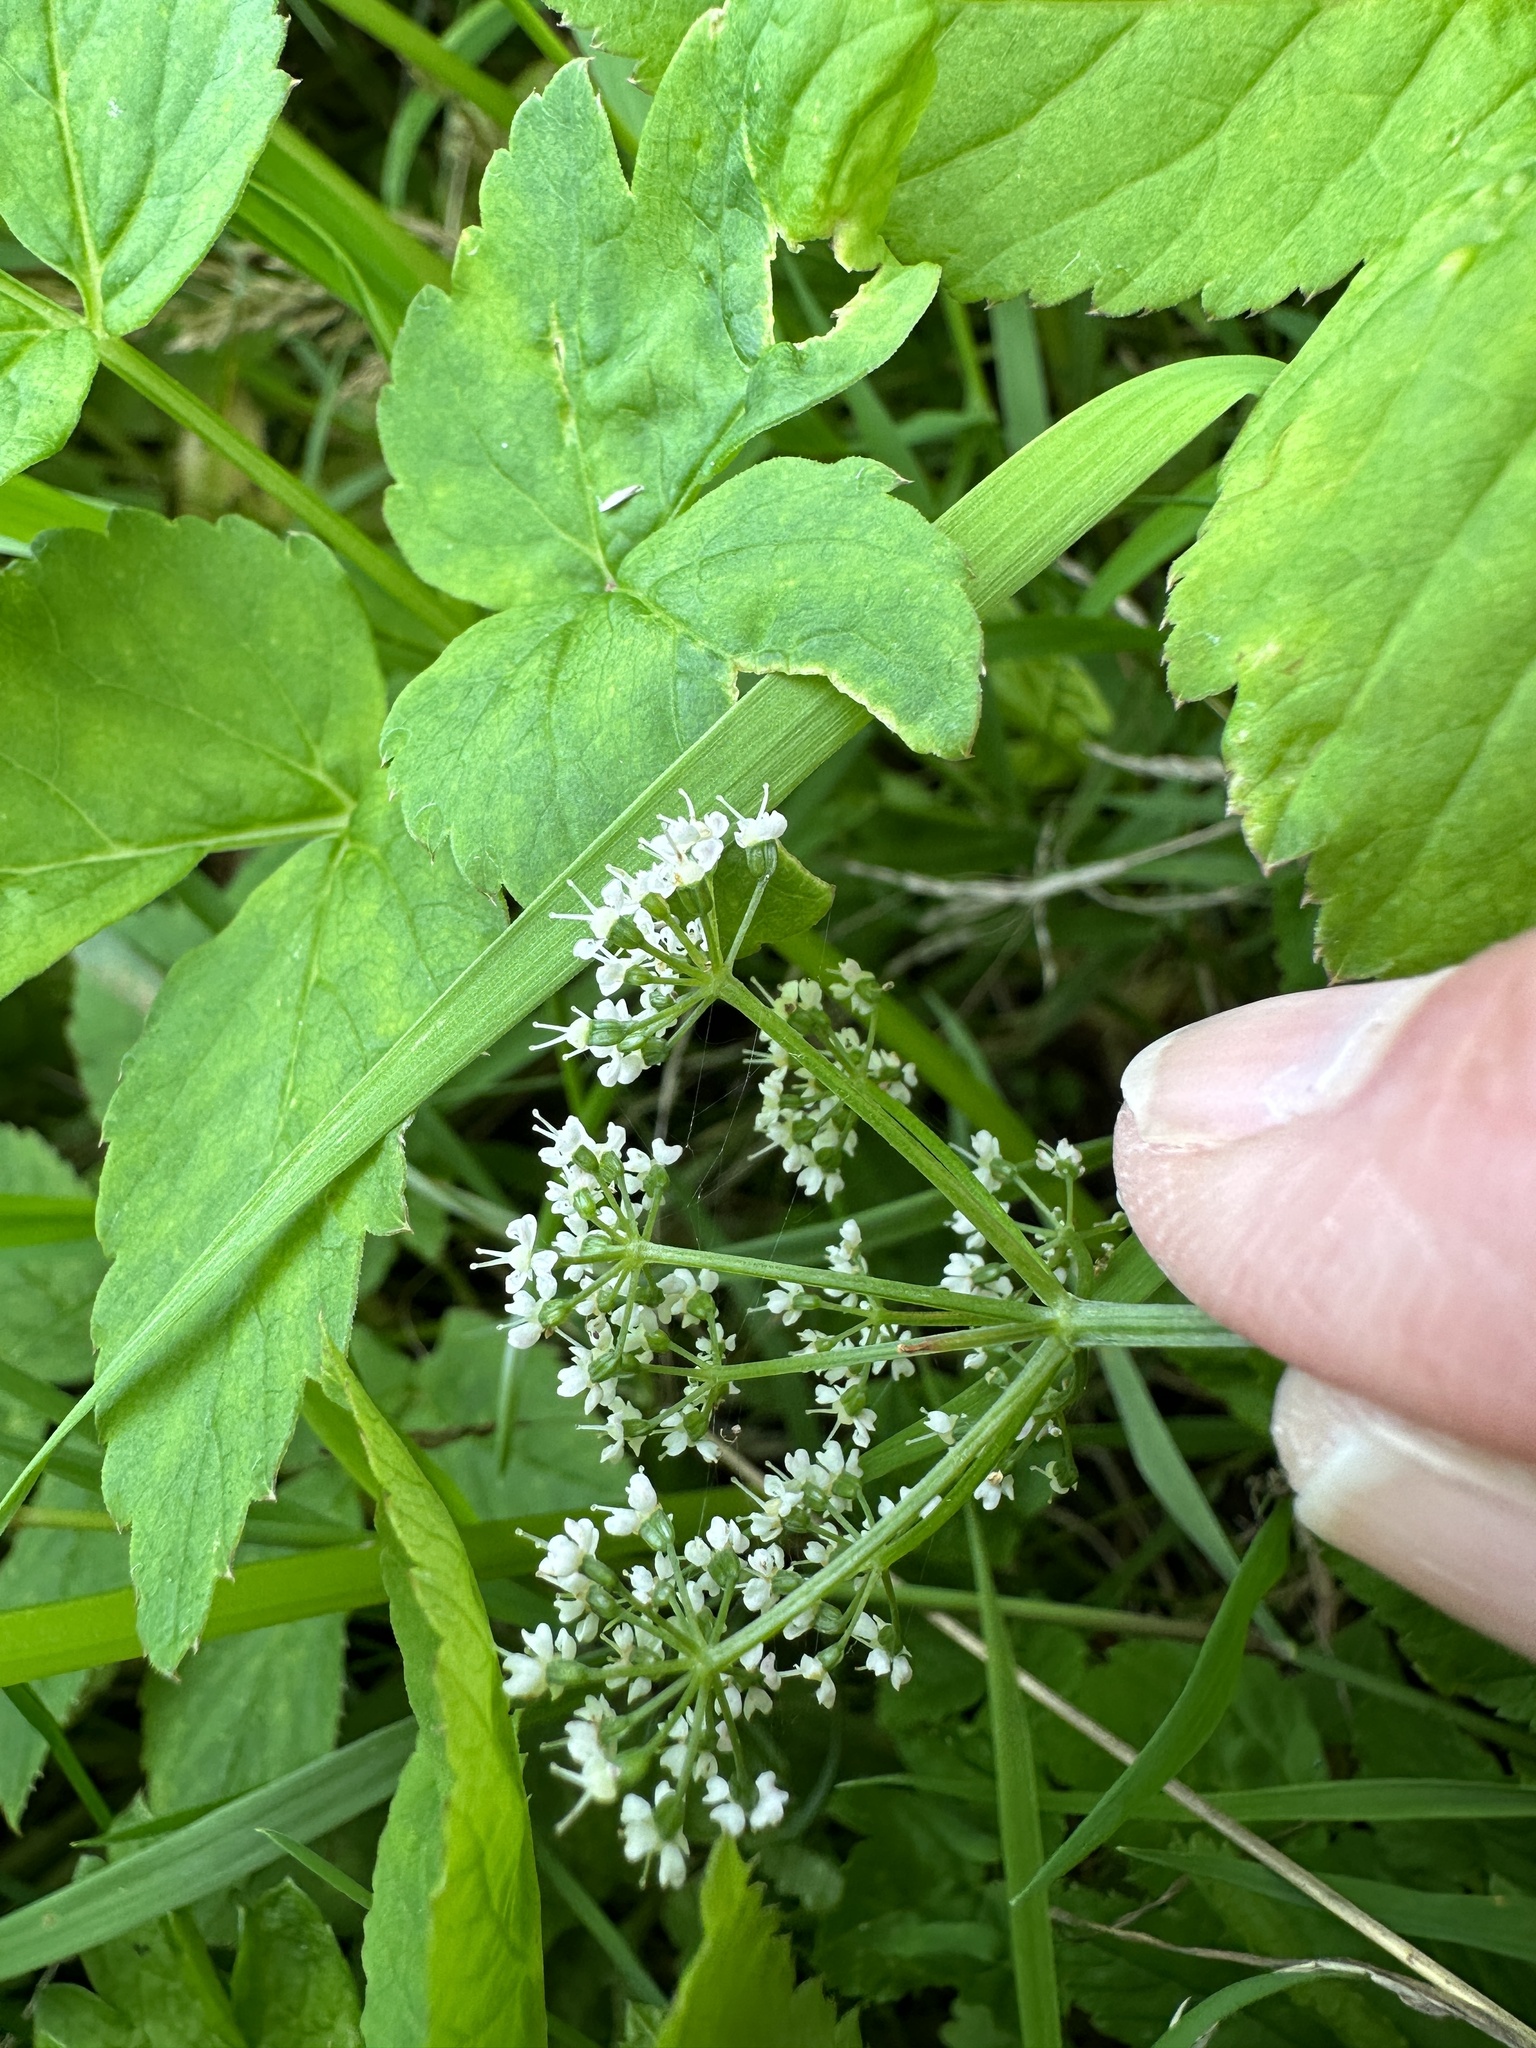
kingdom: Plantae
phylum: Tracheophyta
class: Magnoliopsida
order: Apiales
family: Apiaceae
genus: Aegopodium
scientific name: Aegopodium podagraria
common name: Ground-elder
